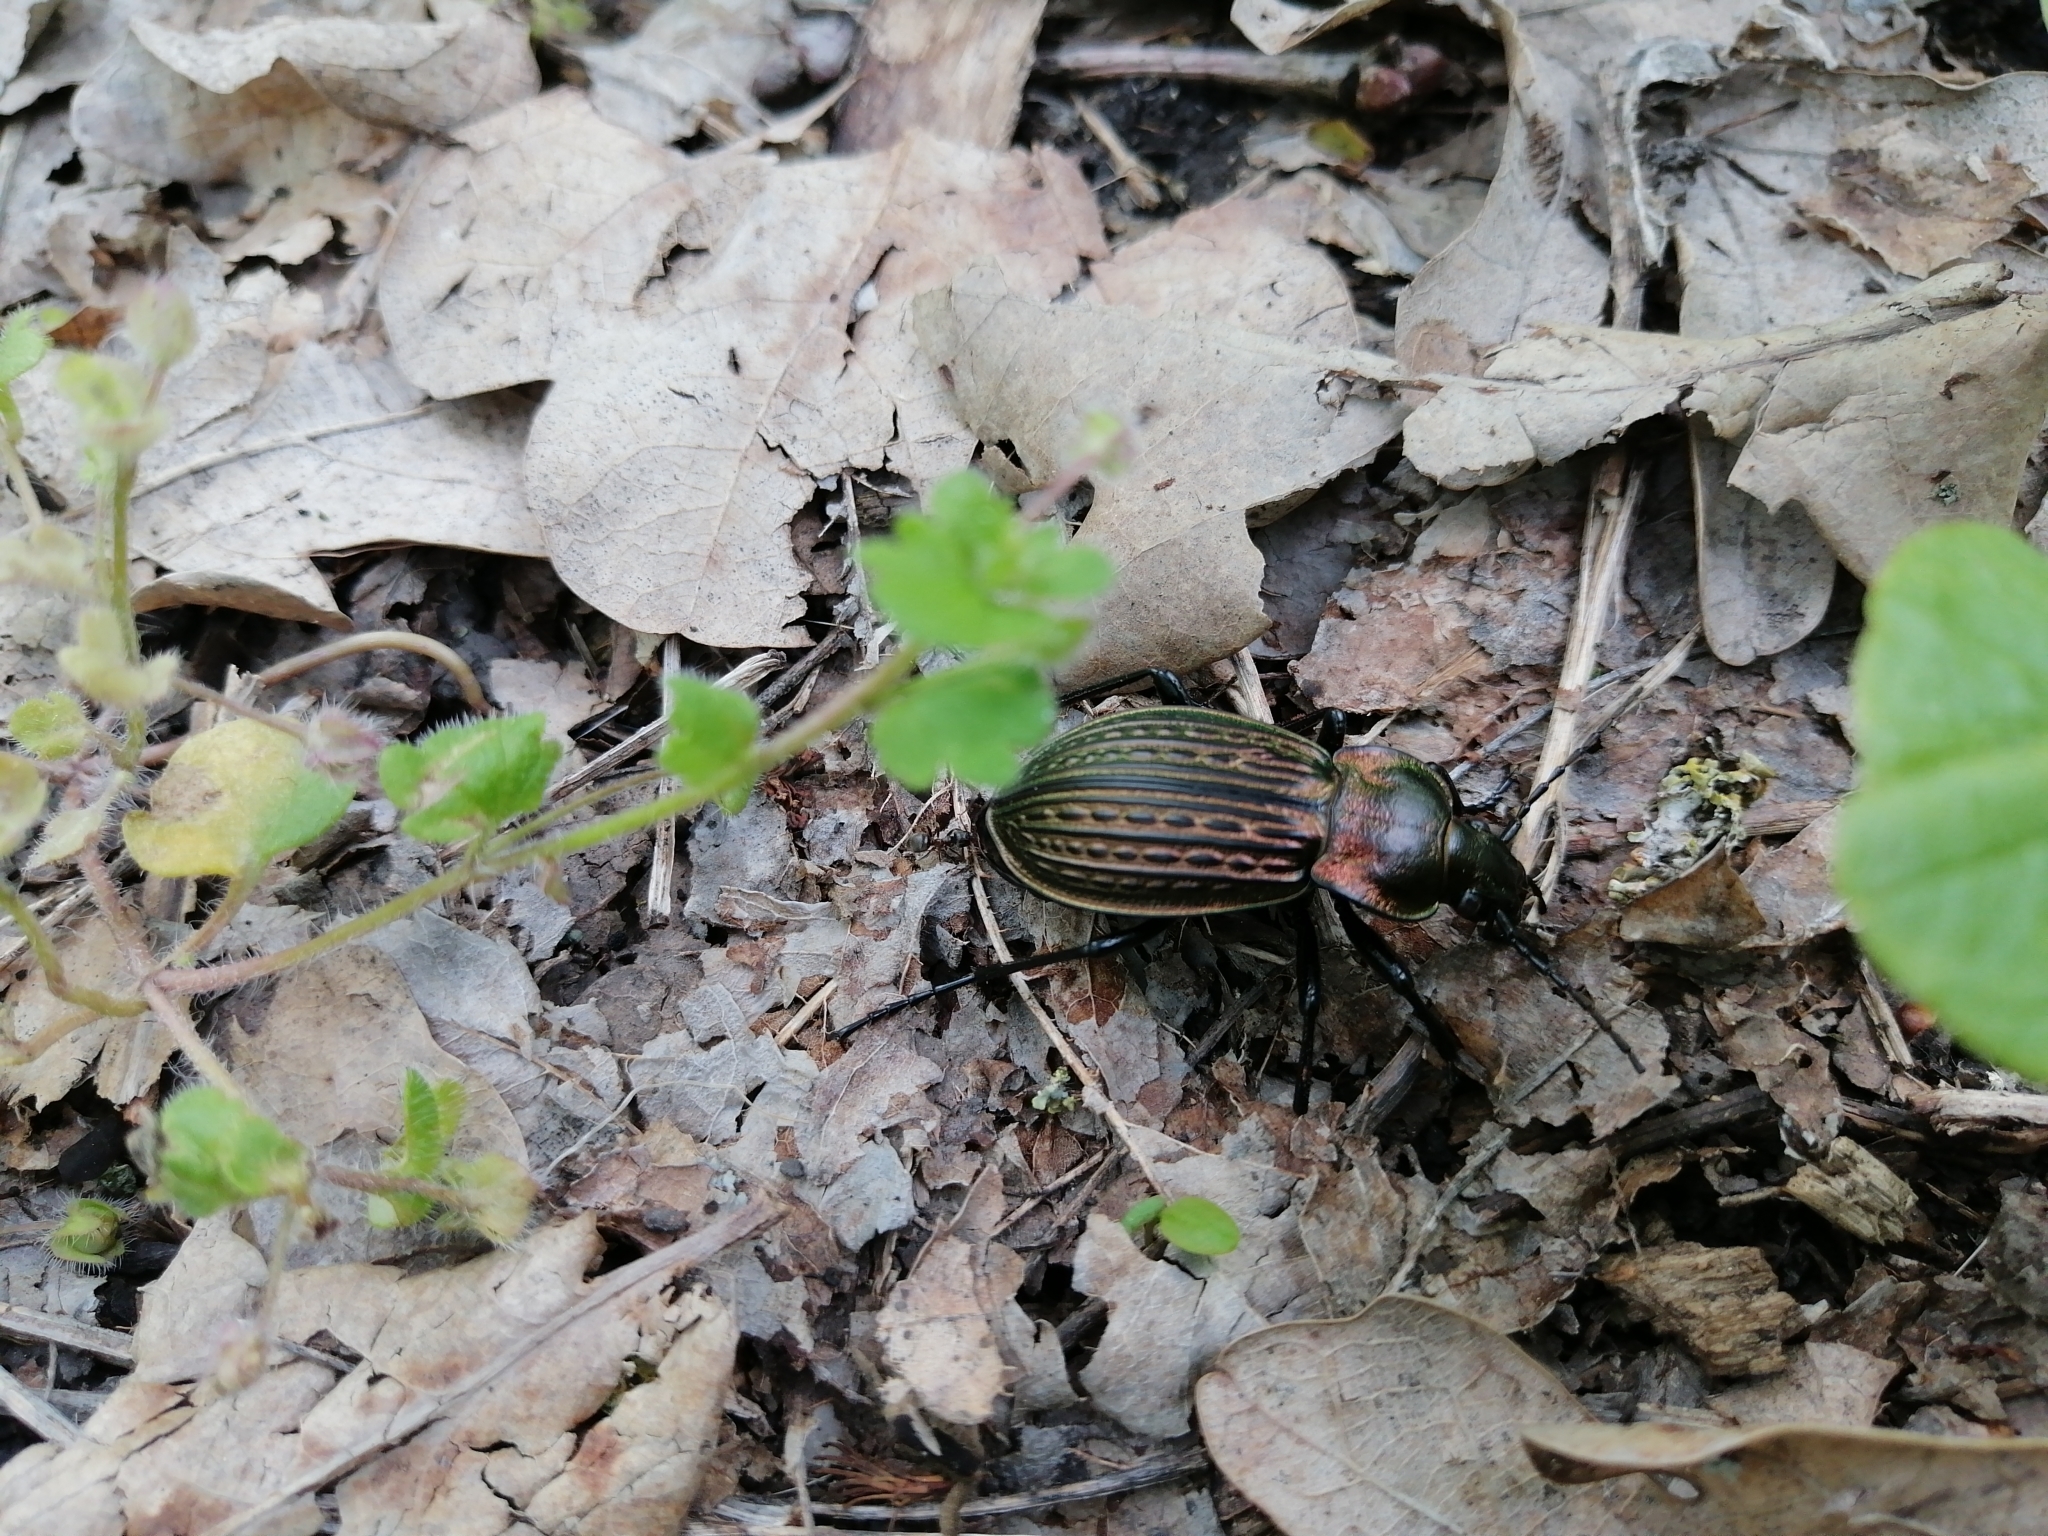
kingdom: Animalia
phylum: Arthropoda
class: Insecta
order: Coleoptera
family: Carabidae
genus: Carabus
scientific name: Carabus ulrichii
